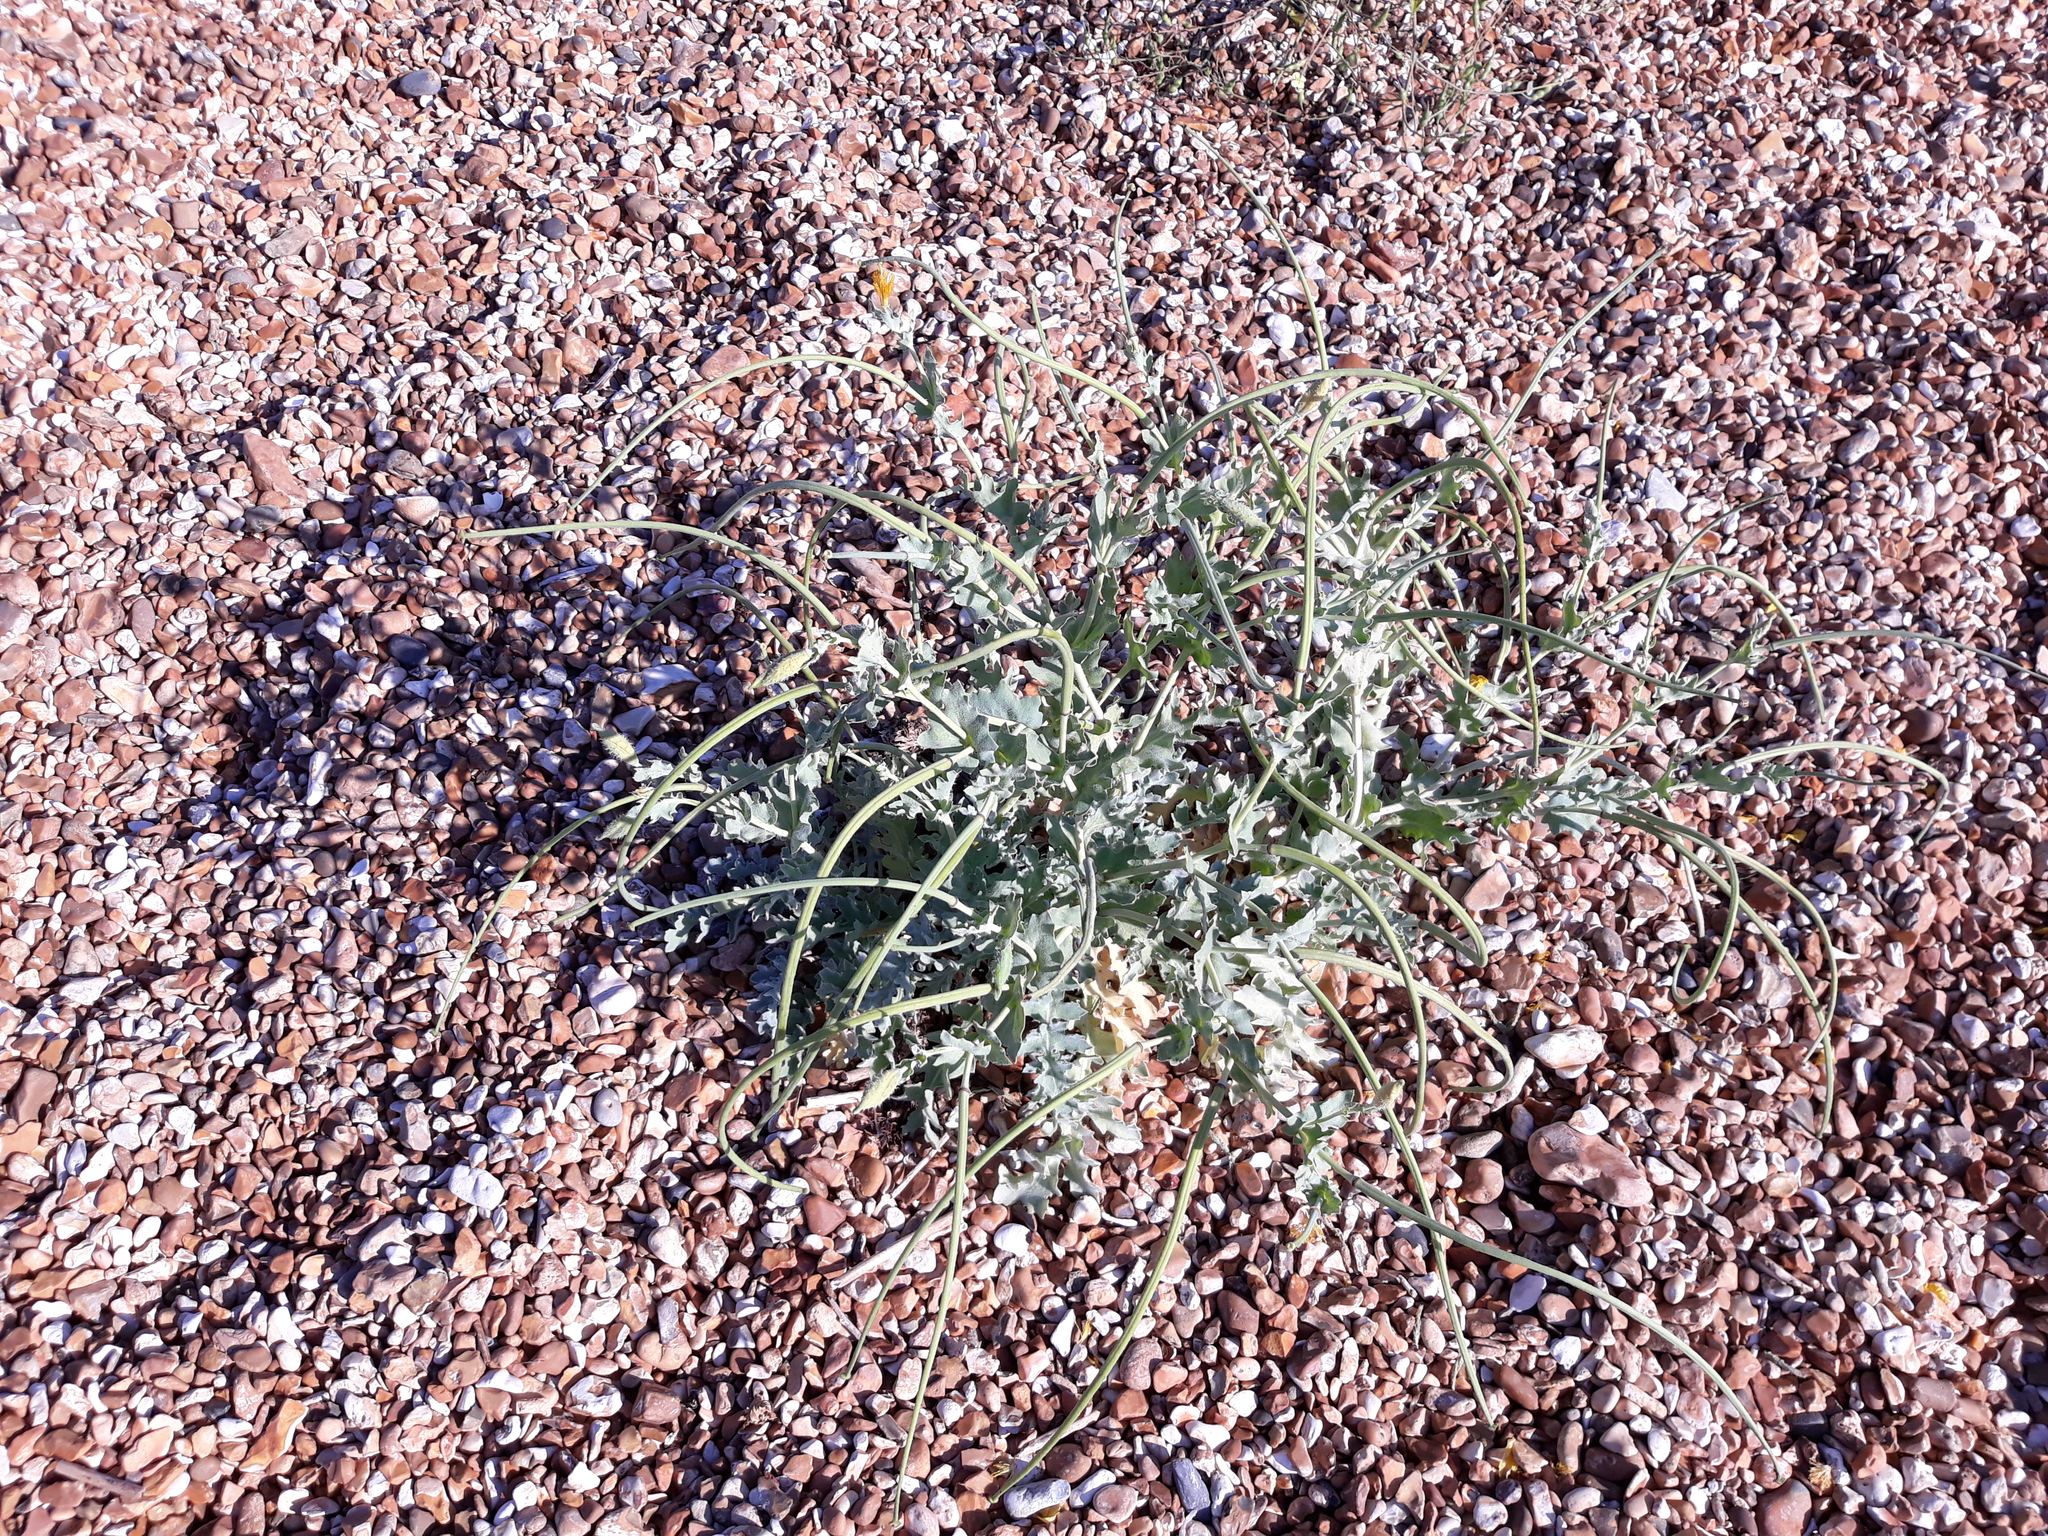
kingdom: Plantae
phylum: Tracheophyta
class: Magnoliopsida
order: Ranunculales
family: Papaveraceae
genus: Glaucium
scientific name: Glaucium flavum
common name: Yellow horned-poppy
